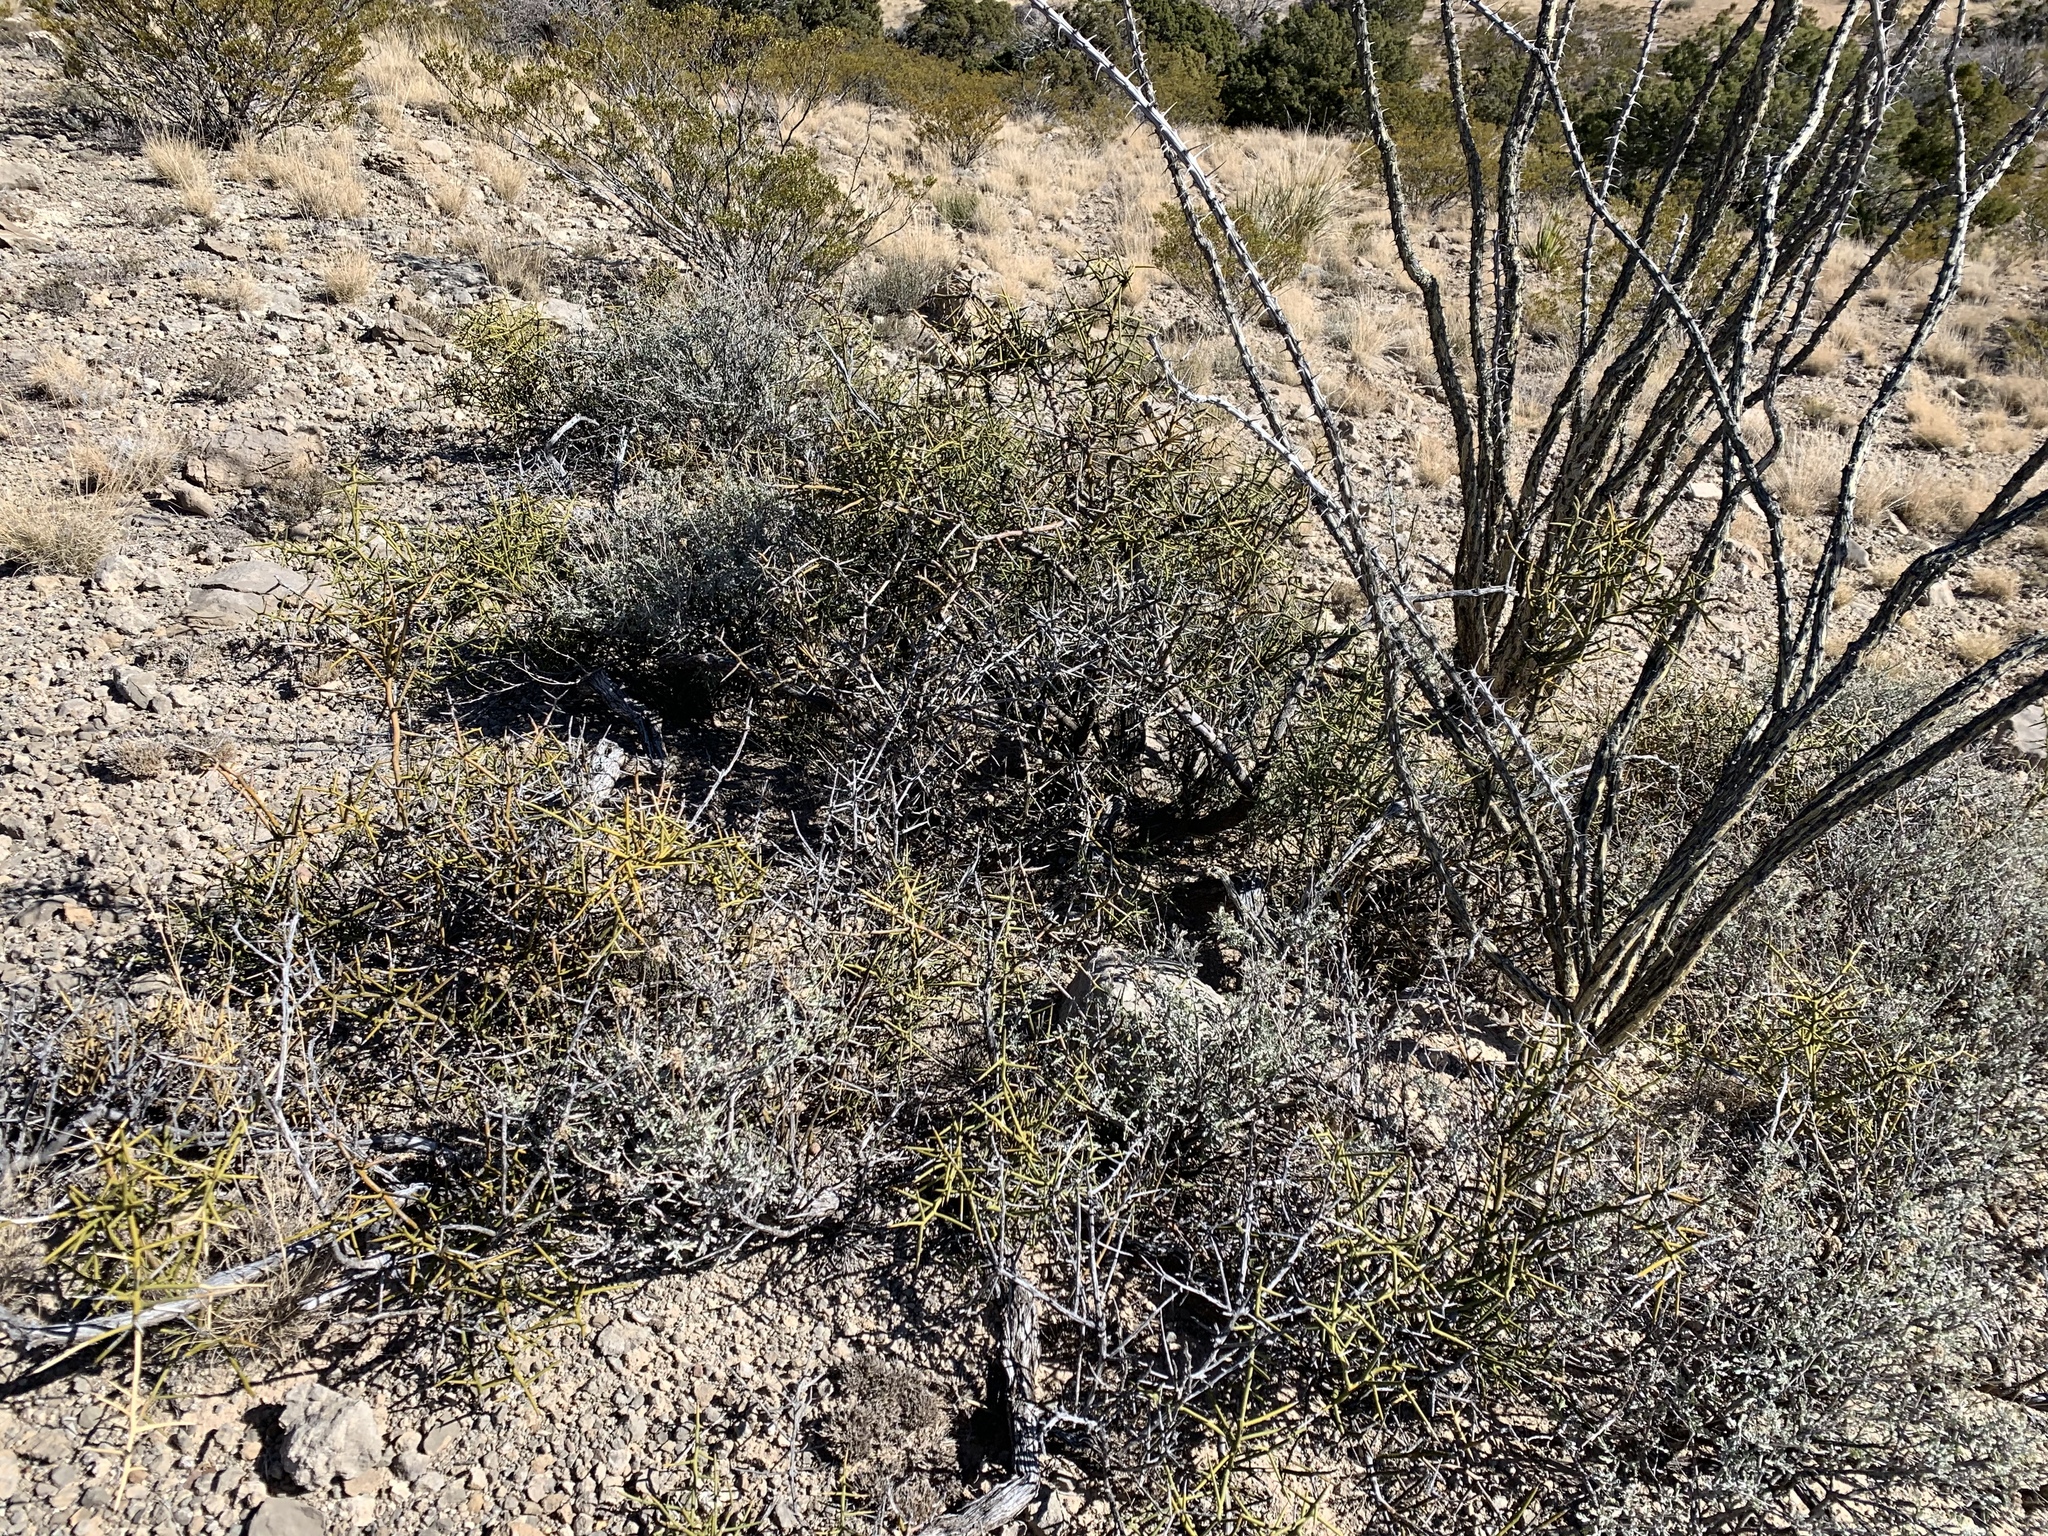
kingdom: Plantae
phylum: Tracheophyta
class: Magnoliopsida
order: Brassicales
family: Koeberliniaceae
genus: Koeberlinia
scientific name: Koeberlinia spinosa
